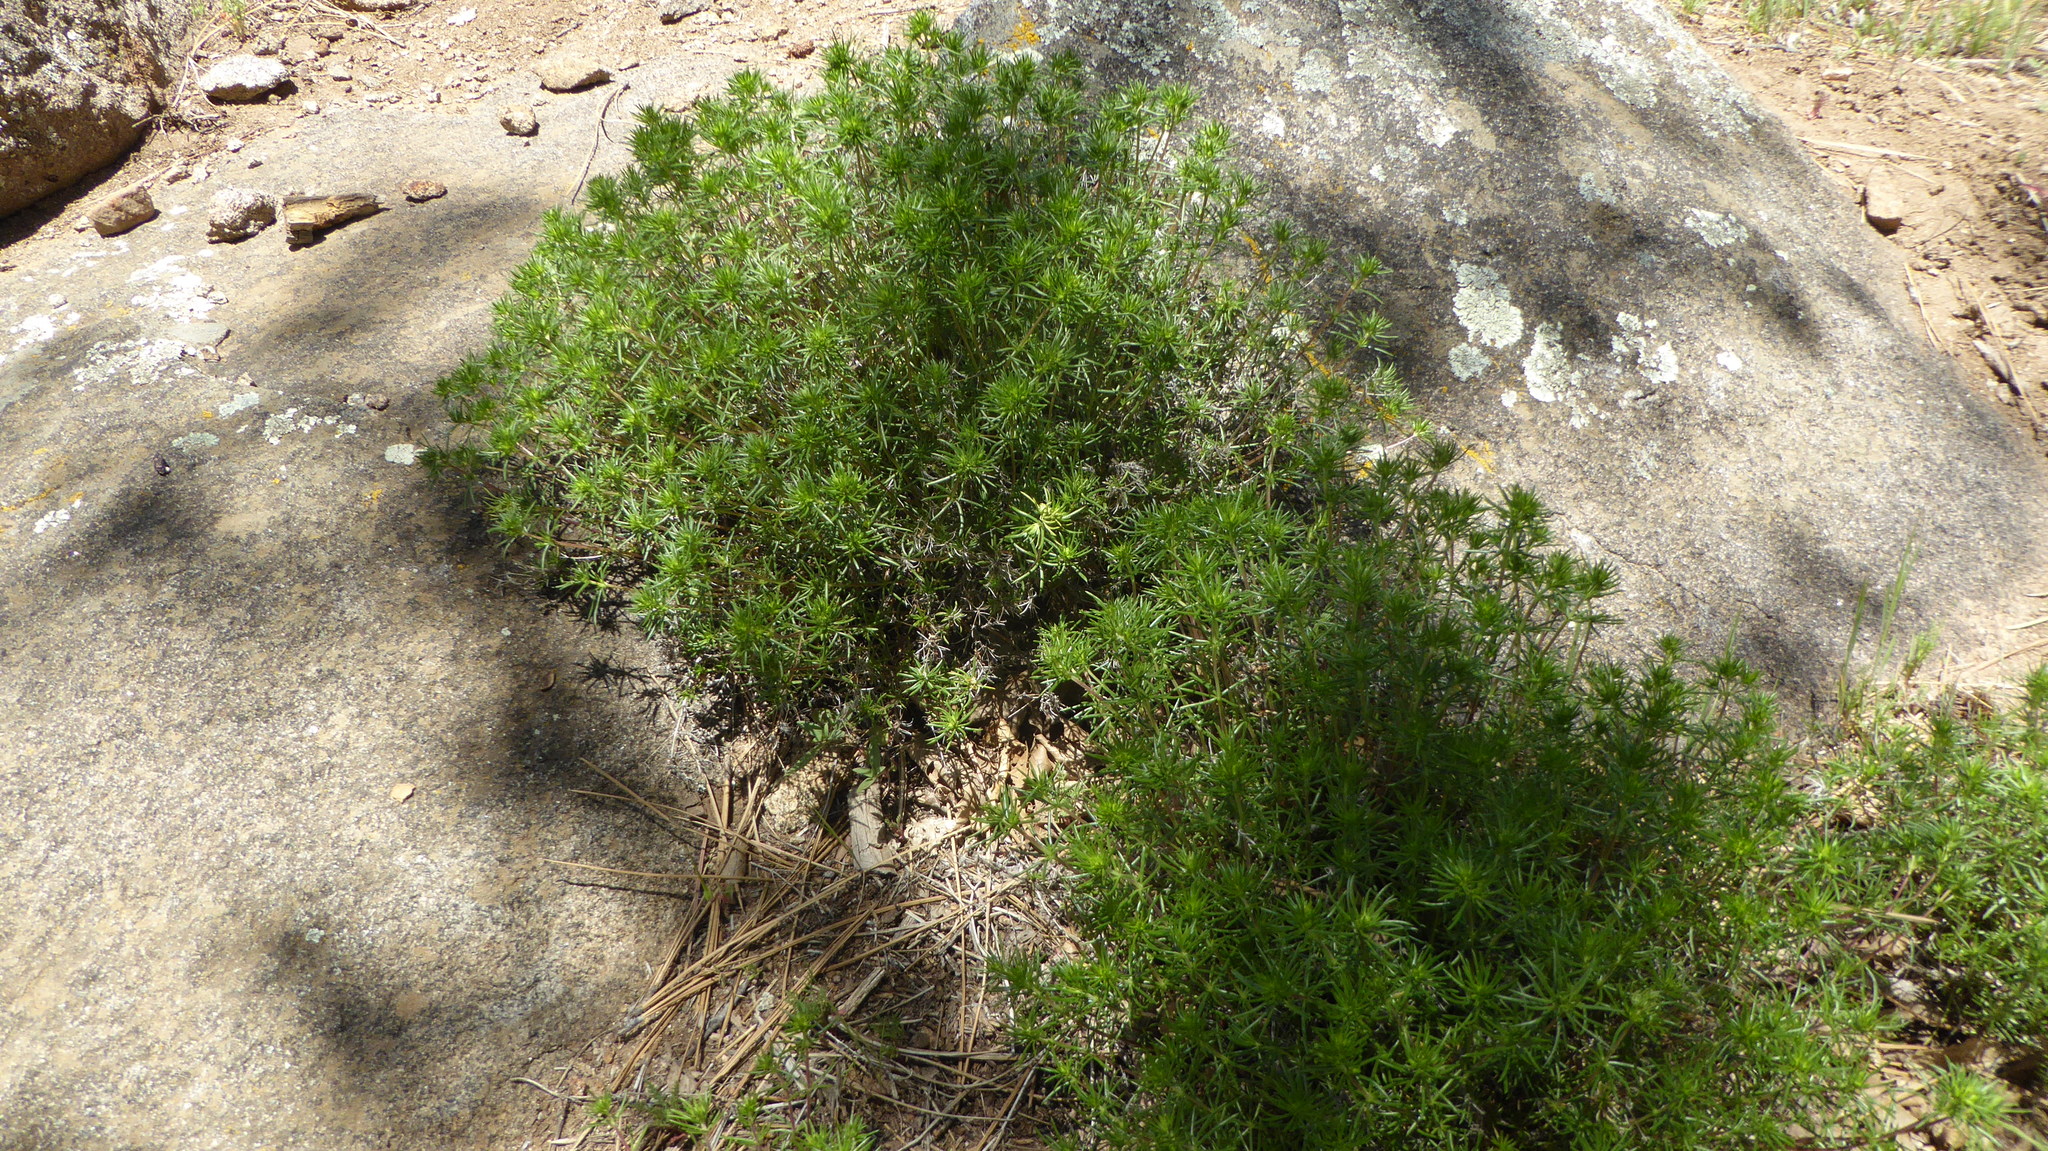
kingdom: Plantae
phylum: Tracheophyta
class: Magnoliopsida
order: Ericales
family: Polemoniaceae
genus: Leptosiphon
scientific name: Leptosiphon floribundum
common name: Many-flower linanthus
